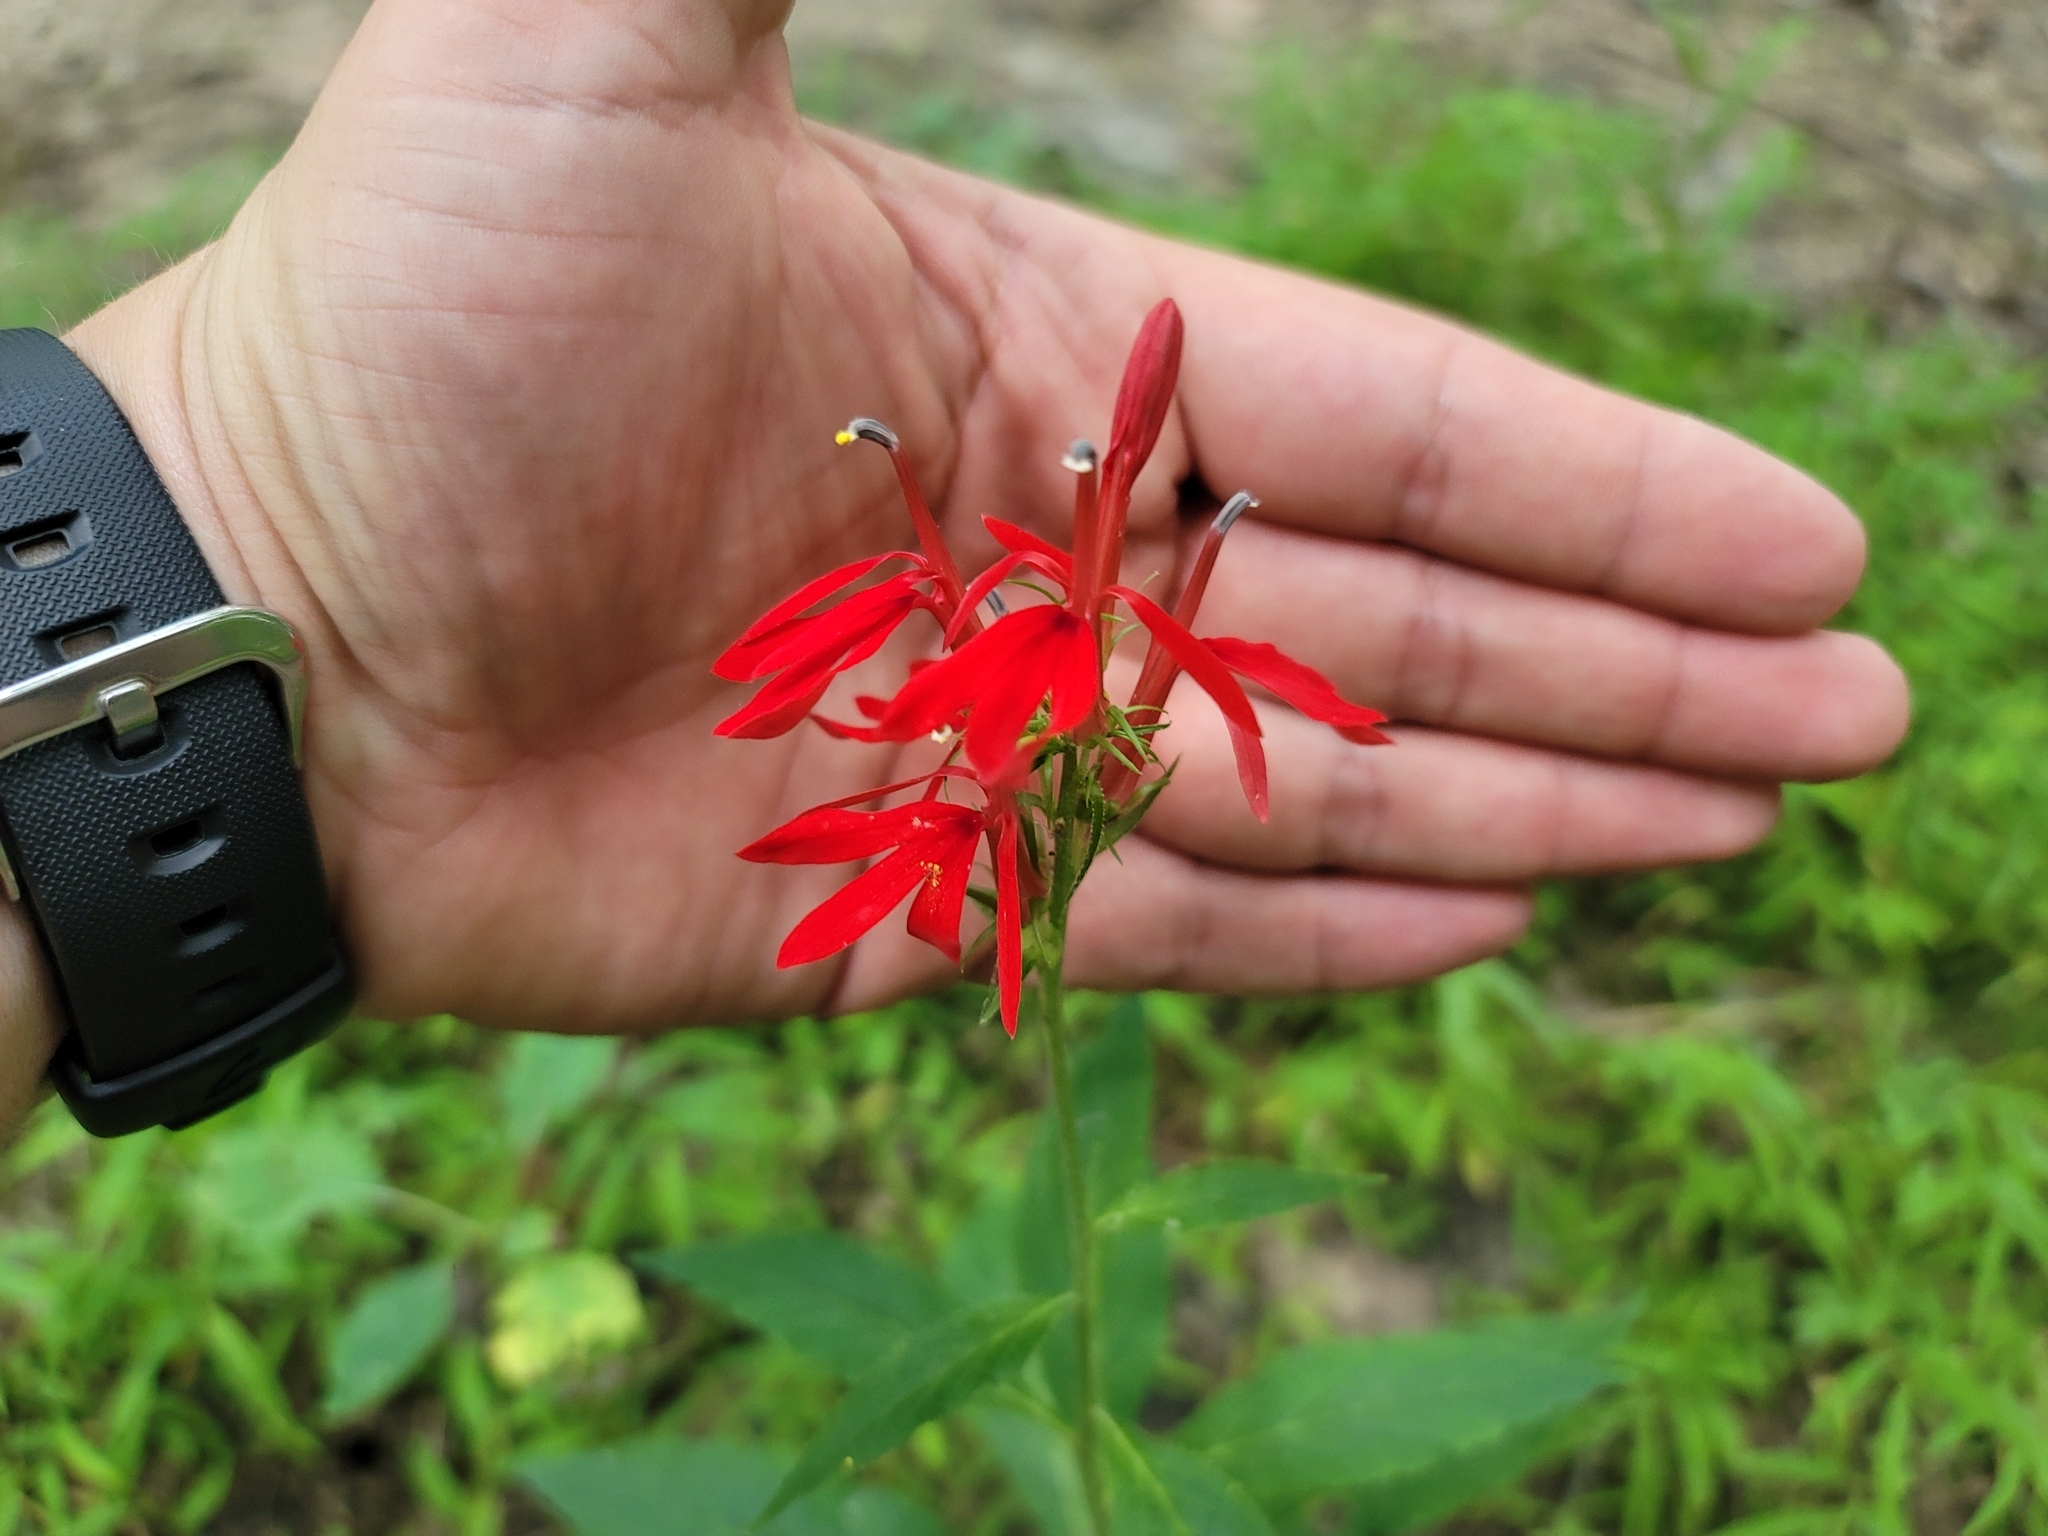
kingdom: Plantae
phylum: Tracheophyta
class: Magnoliopsida
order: Asterales
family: Campanulaceae
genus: Lobelia
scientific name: Lobelia cardinalis
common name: Cardinal flower
